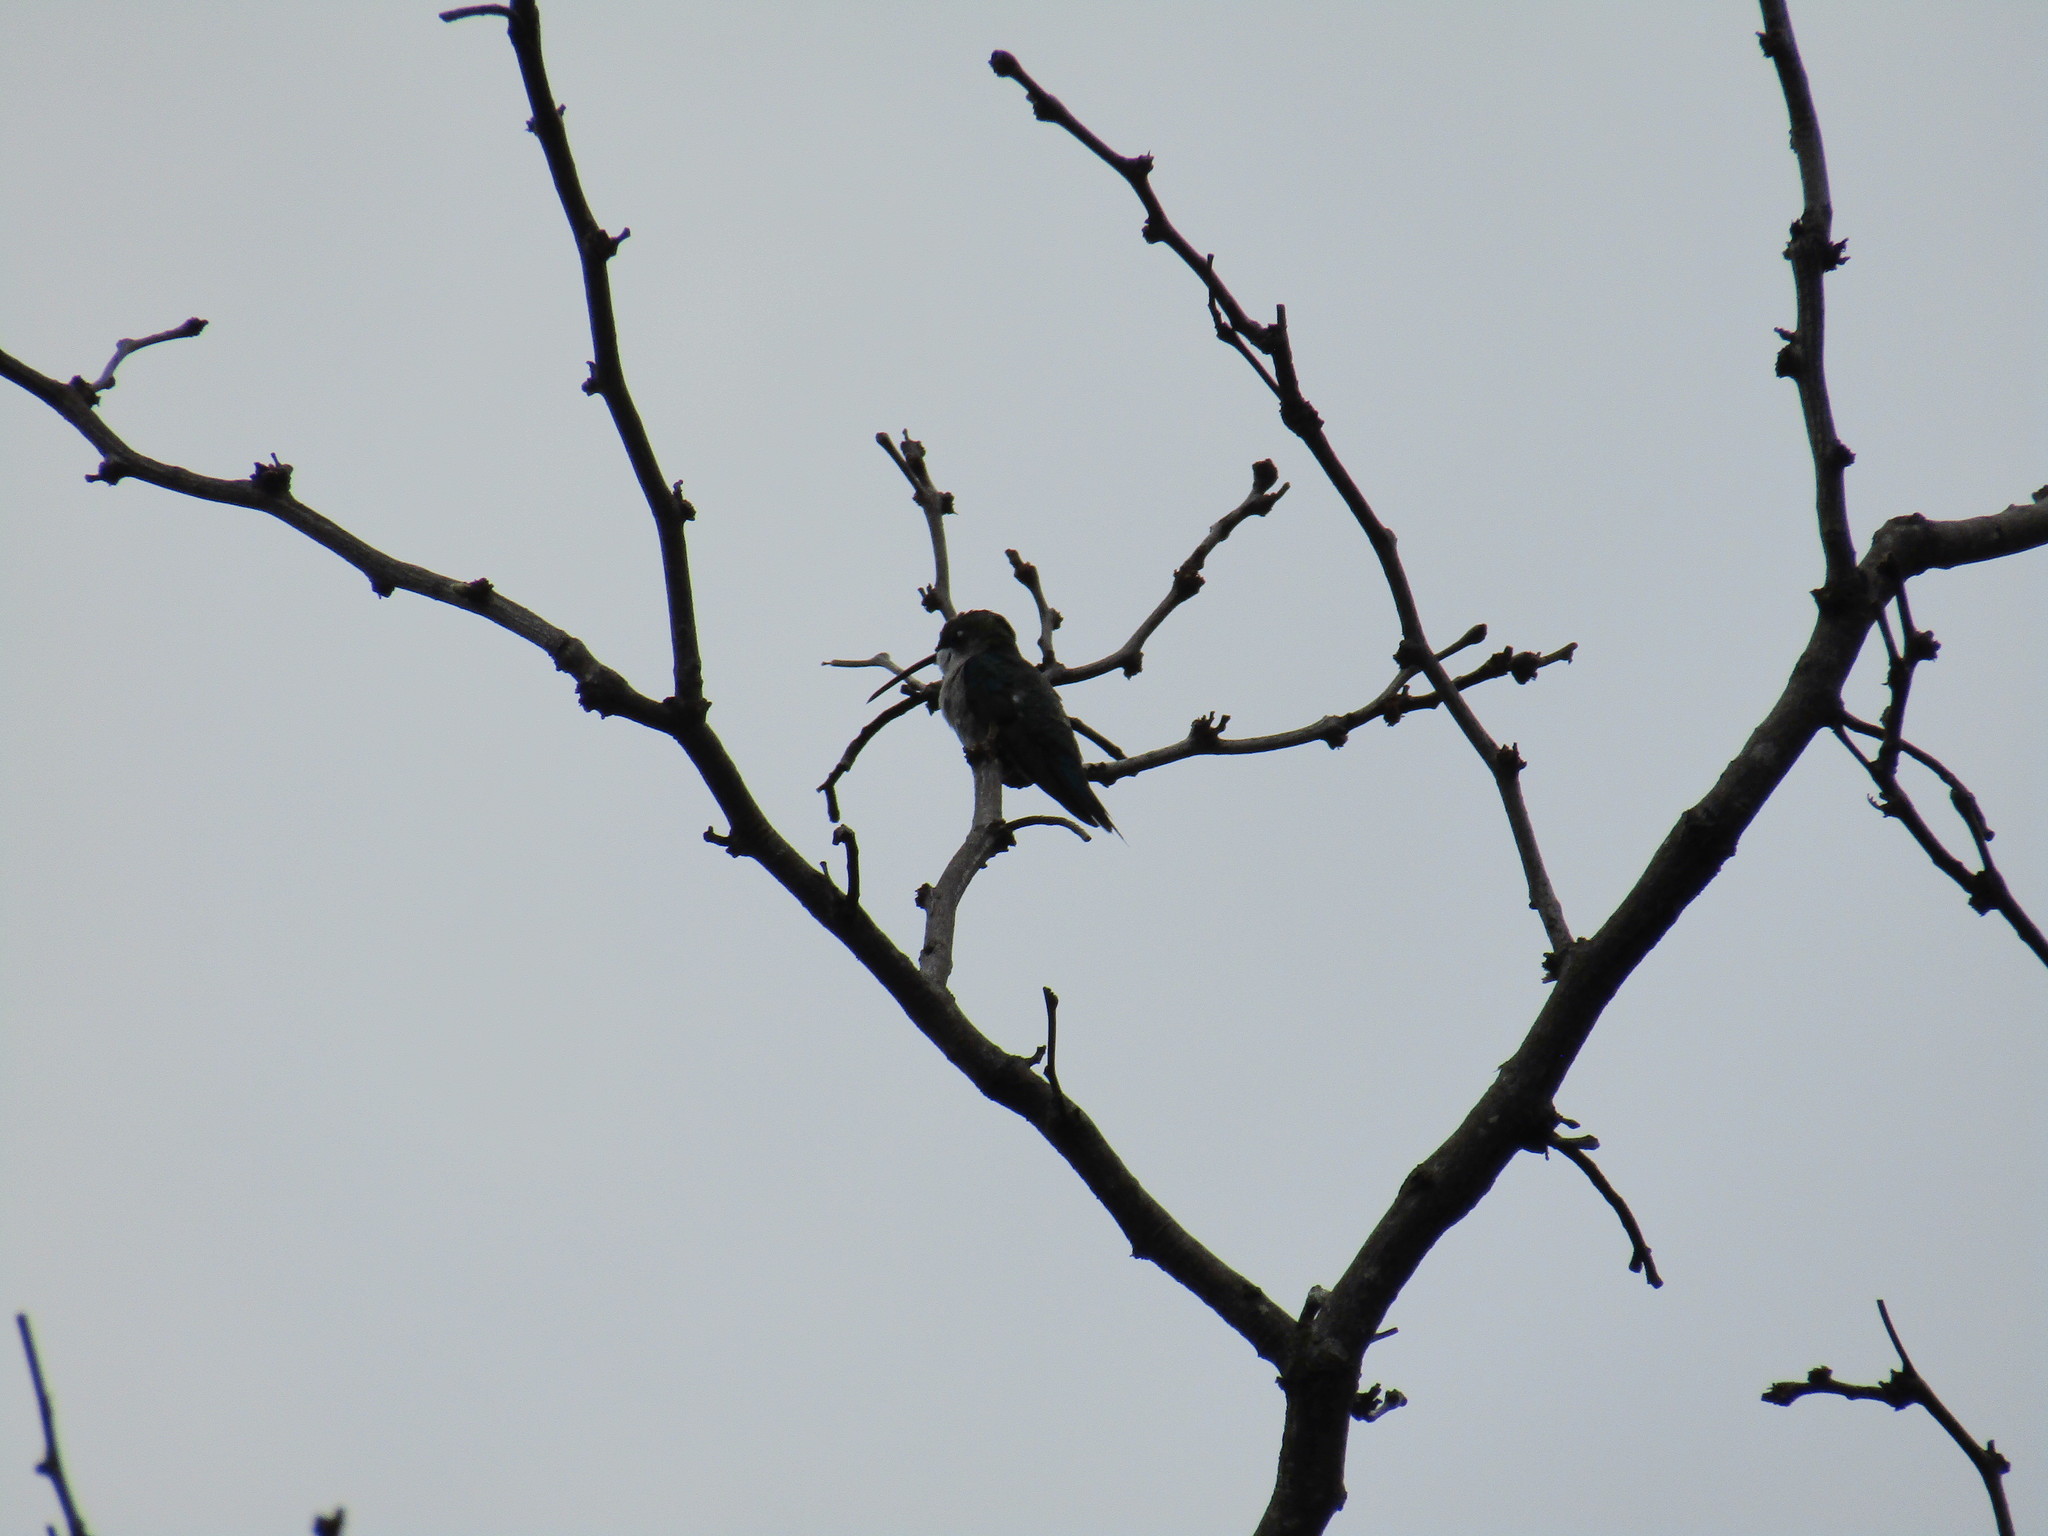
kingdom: Animalia
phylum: Chordata
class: Aves
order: Apodiformes
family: Trochilidae
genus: Heliomaster
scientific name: Heliomaster furcifer
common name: Blue-tufted starthroat
